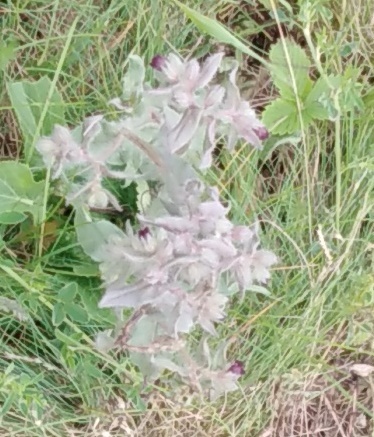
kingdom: Plantae
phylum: Tracheophyta
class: Magnoliopsida
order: Boraginales
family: Boraginaceae
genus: Nonea
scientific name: Nonea pulla
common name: Brown nonea
